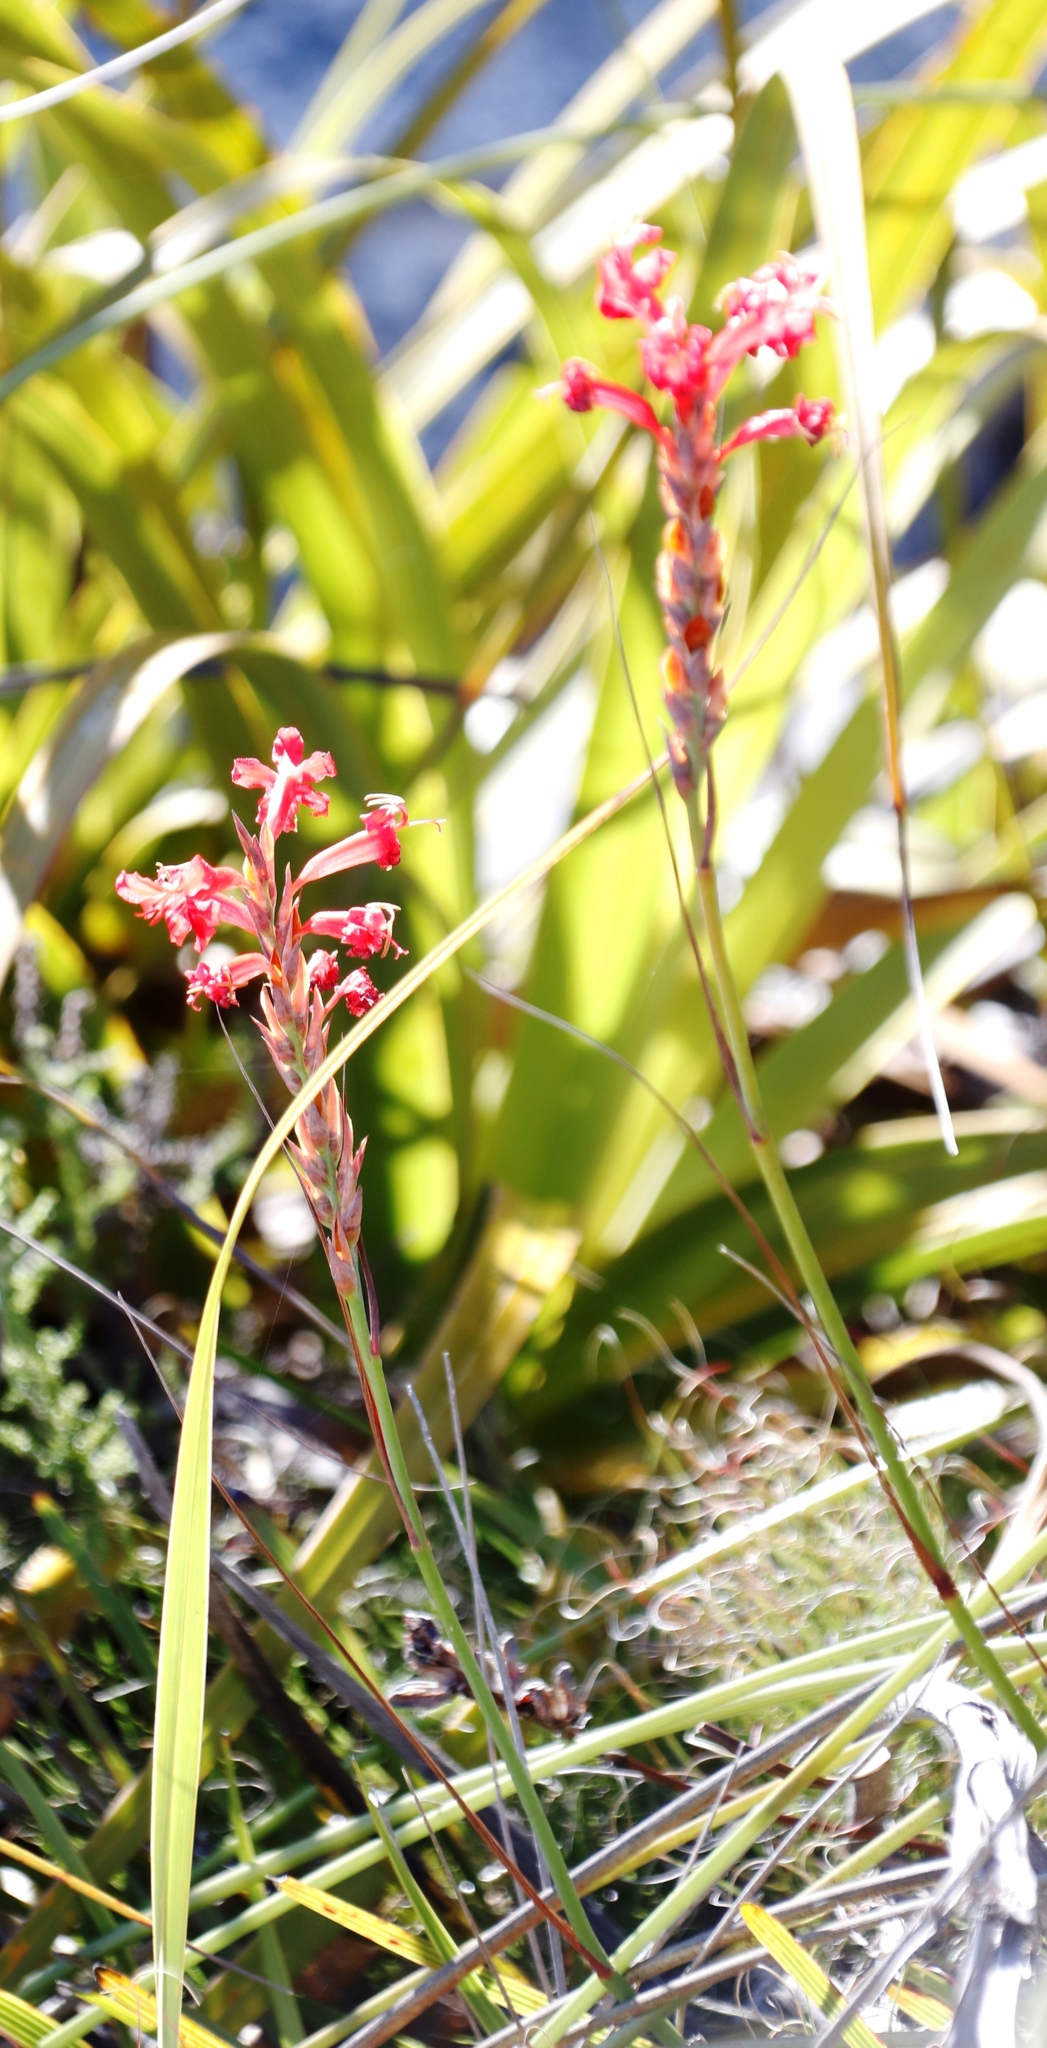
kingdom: Plantae
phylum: Tracheophyta
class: Liliopsida
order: Asparagales
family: Iridaceae
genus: Tritoniopsis
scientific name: Tritoniopsis triticea
